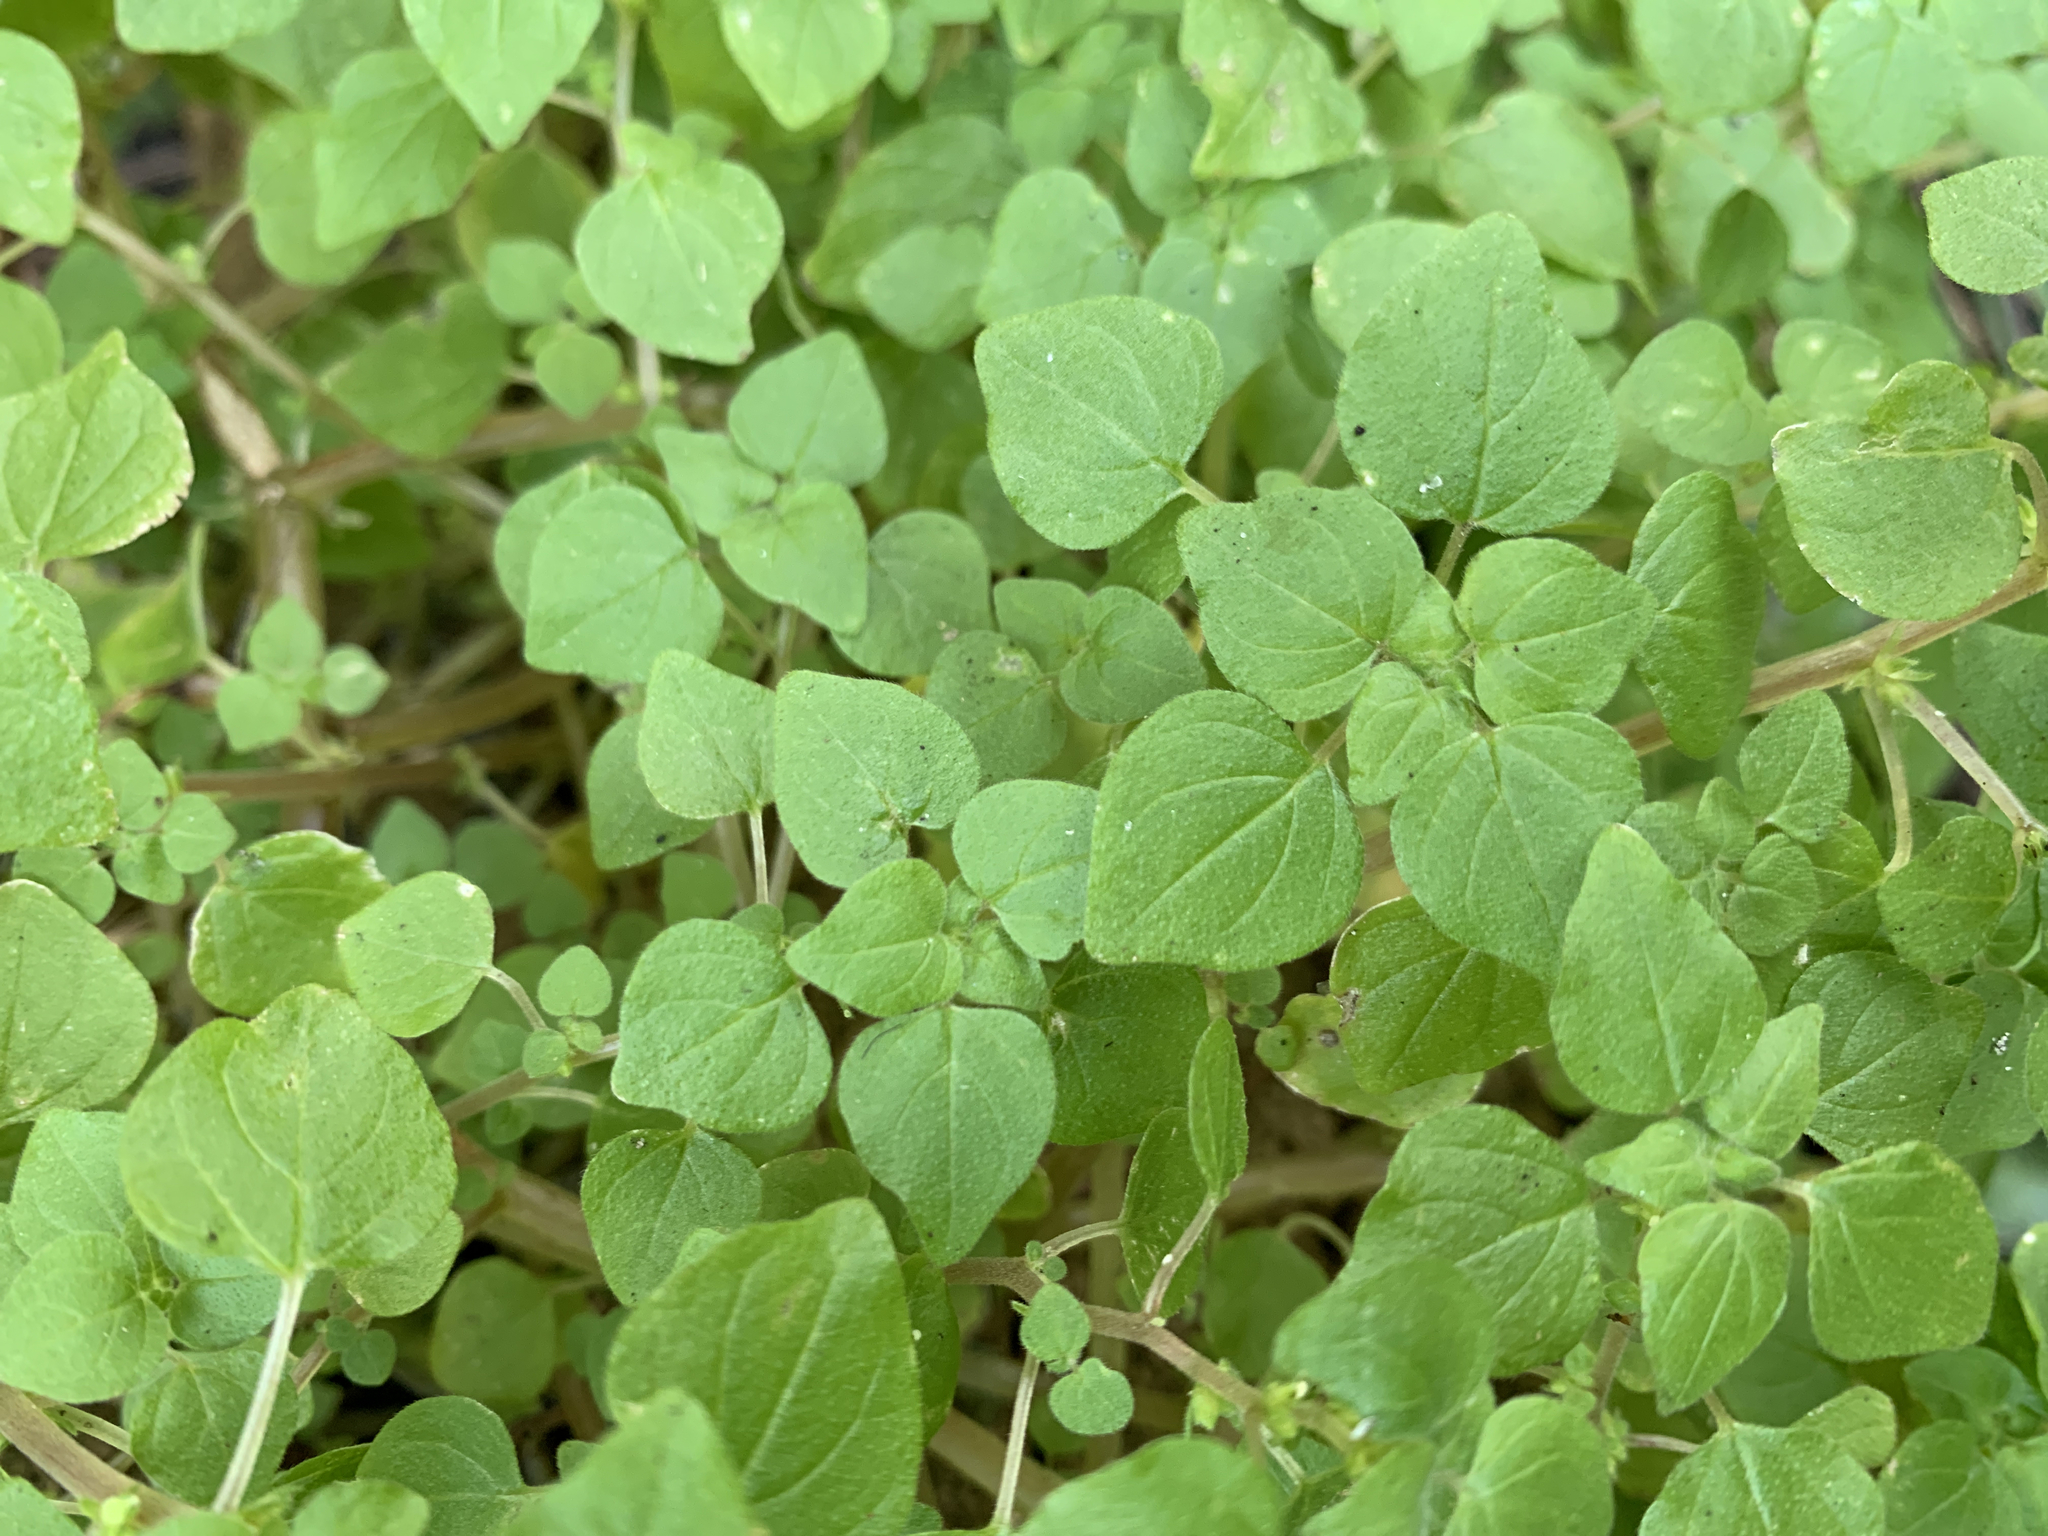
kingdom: Plantae
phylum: Tracheophyta
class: Magnoliopsida
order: Rosales
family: Urticaceae
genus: Parietaria
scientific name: Parietaria floridana
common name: Florida pellitory
